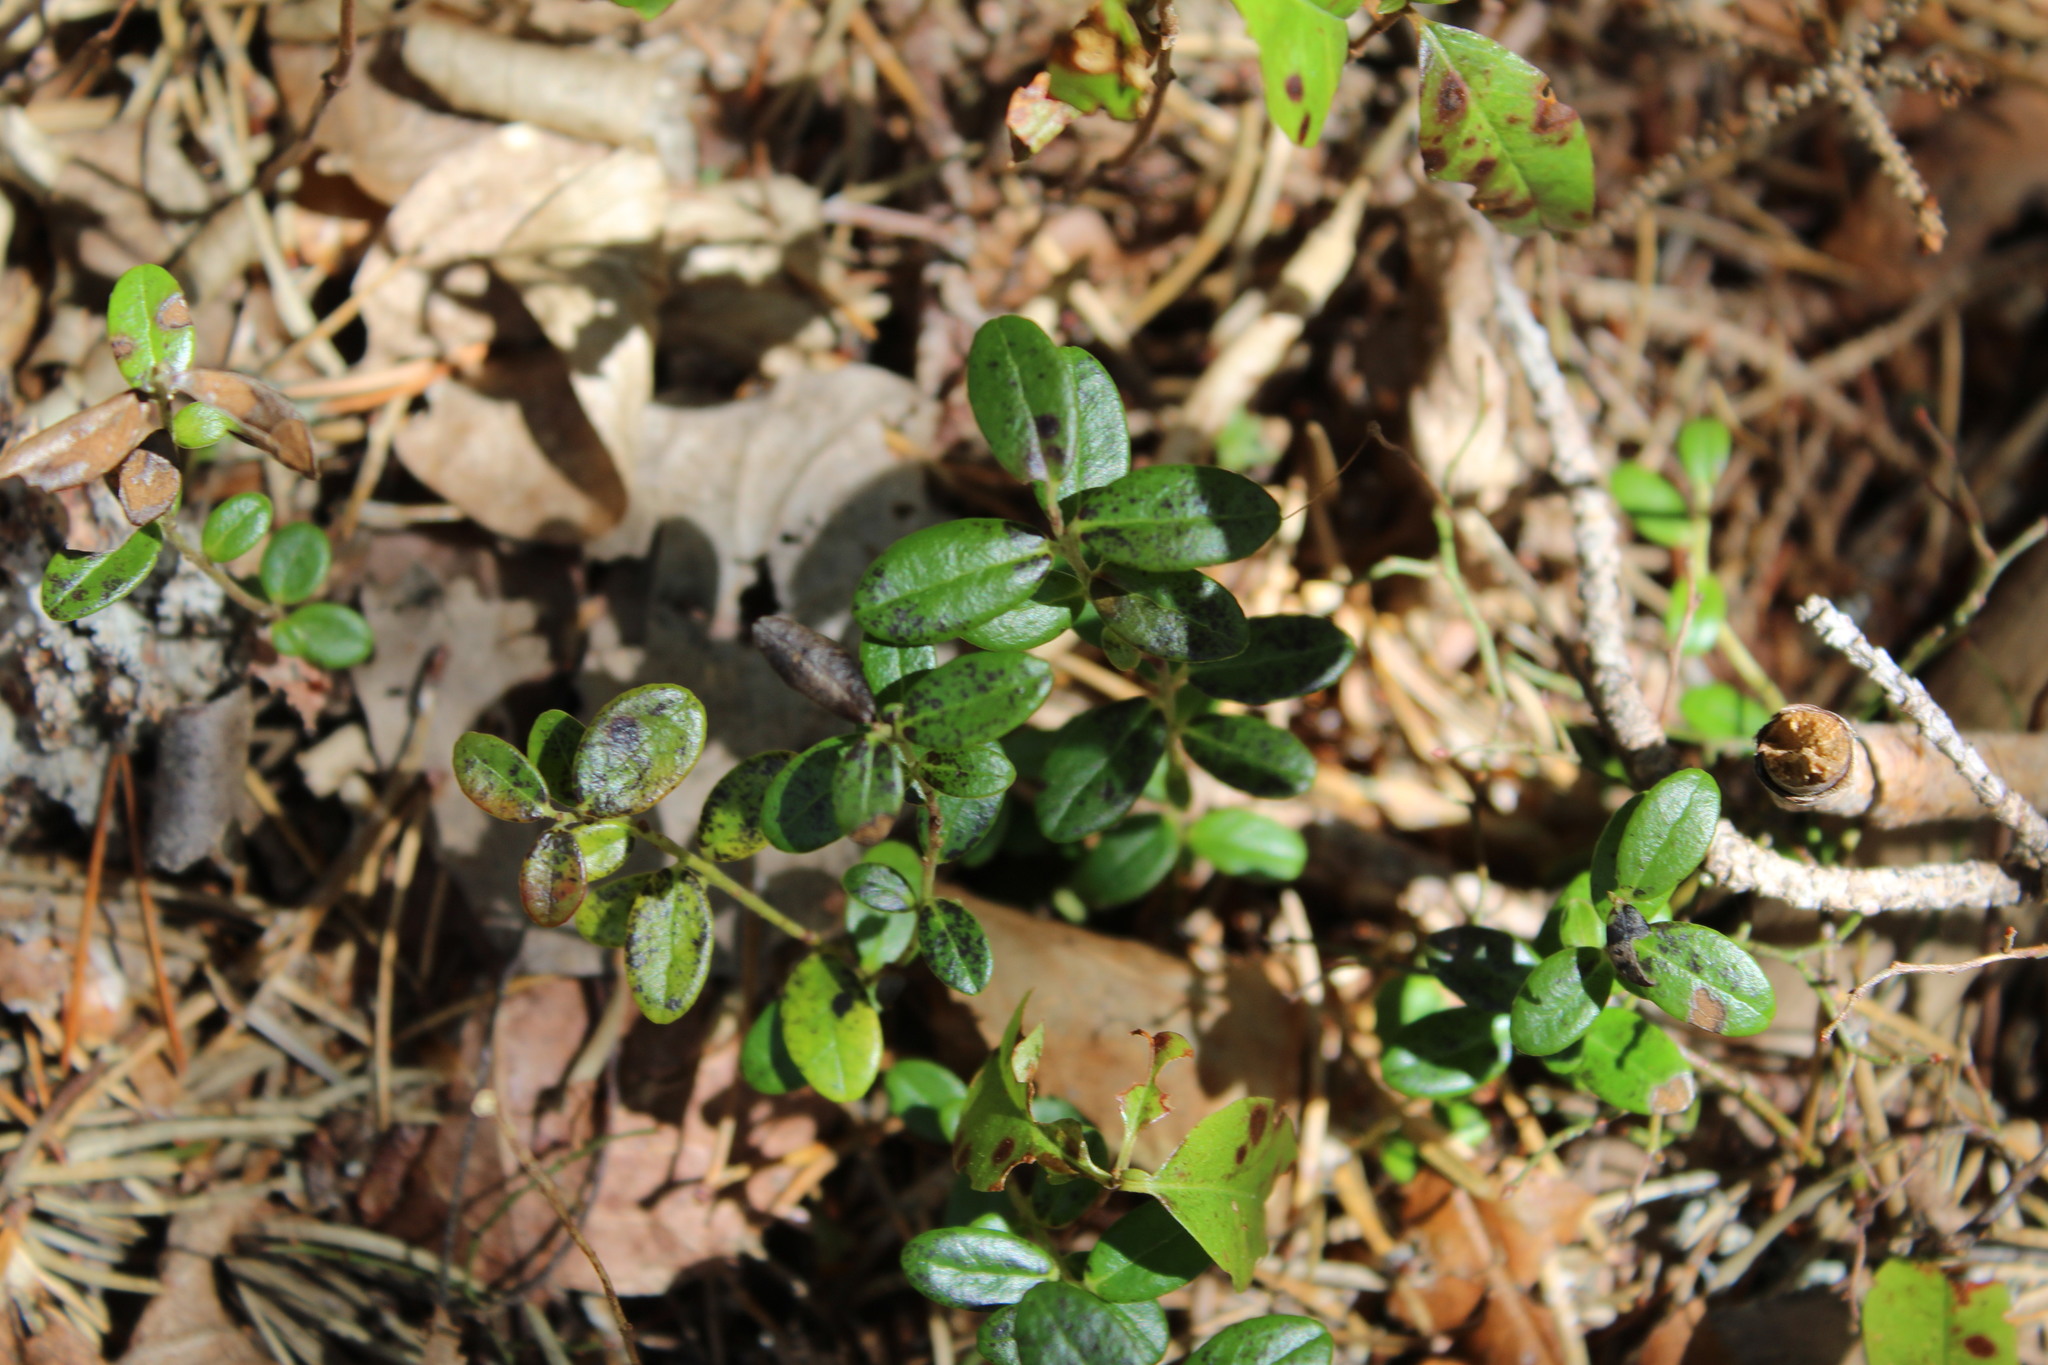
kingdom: Plantae
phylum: Tracheophyta
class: Magnoliopsida
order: Ericales
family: Ericaceae
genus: Vaccinium
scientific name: Vaccinium vitis-idaea
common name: Cowberry
